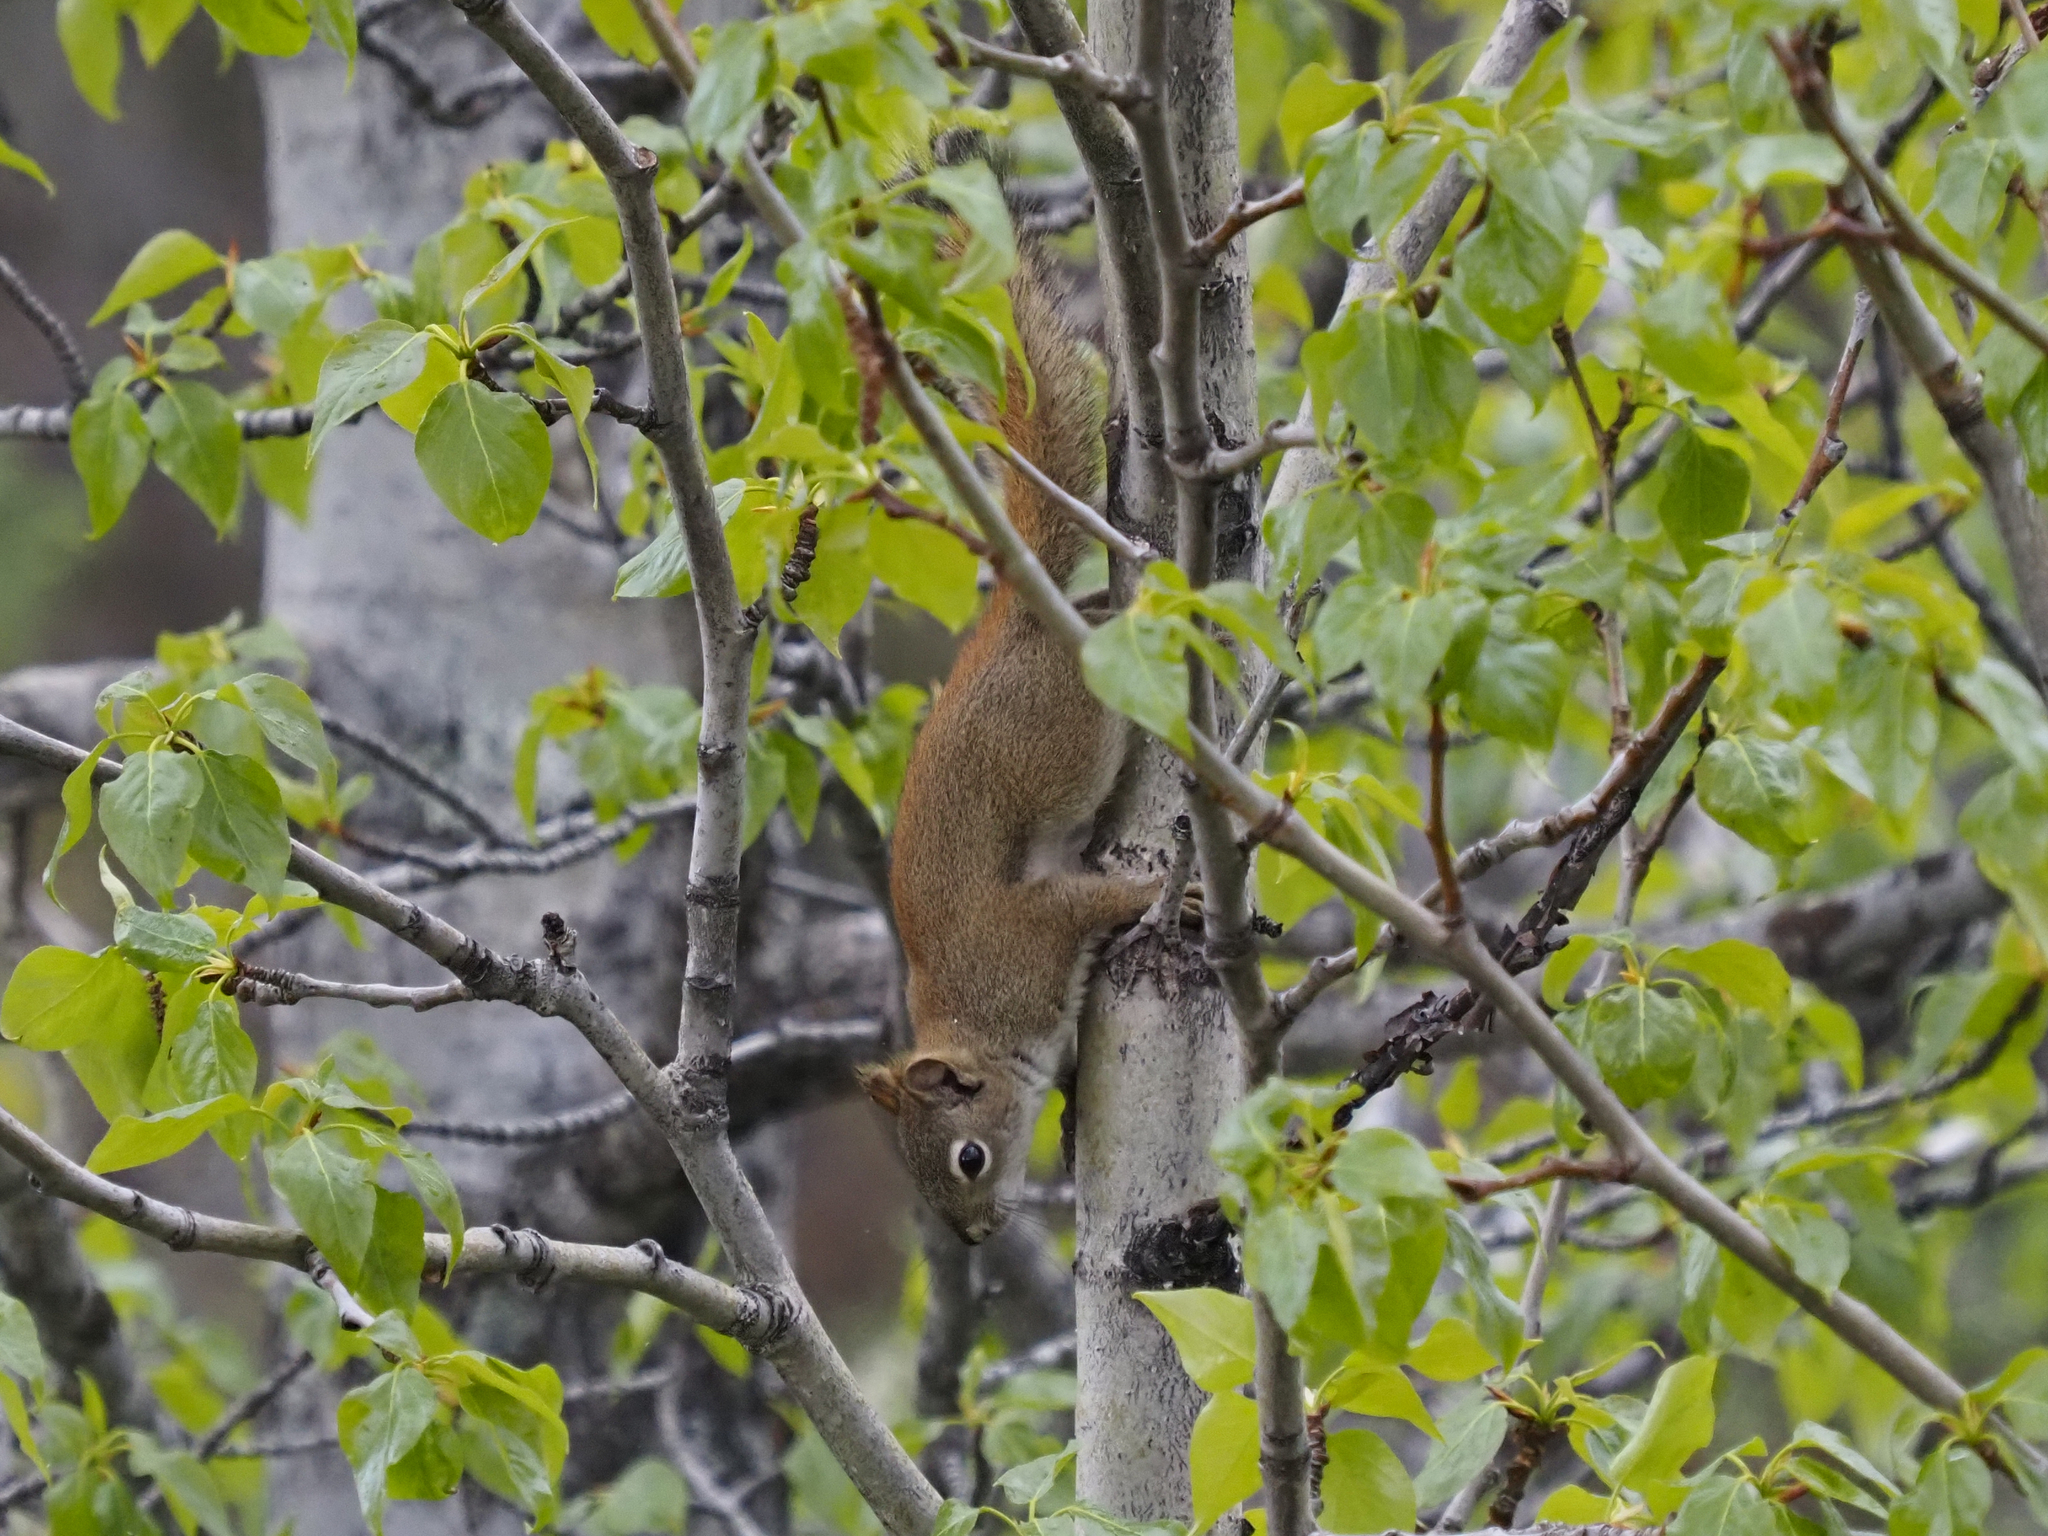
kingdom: Animalia
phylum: Chordata
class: Mammalia
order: Rodentia
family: Sciuridae
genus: Tamiasciurus
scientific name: Tamiasciurus hudsonicus
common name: Red squirrel
